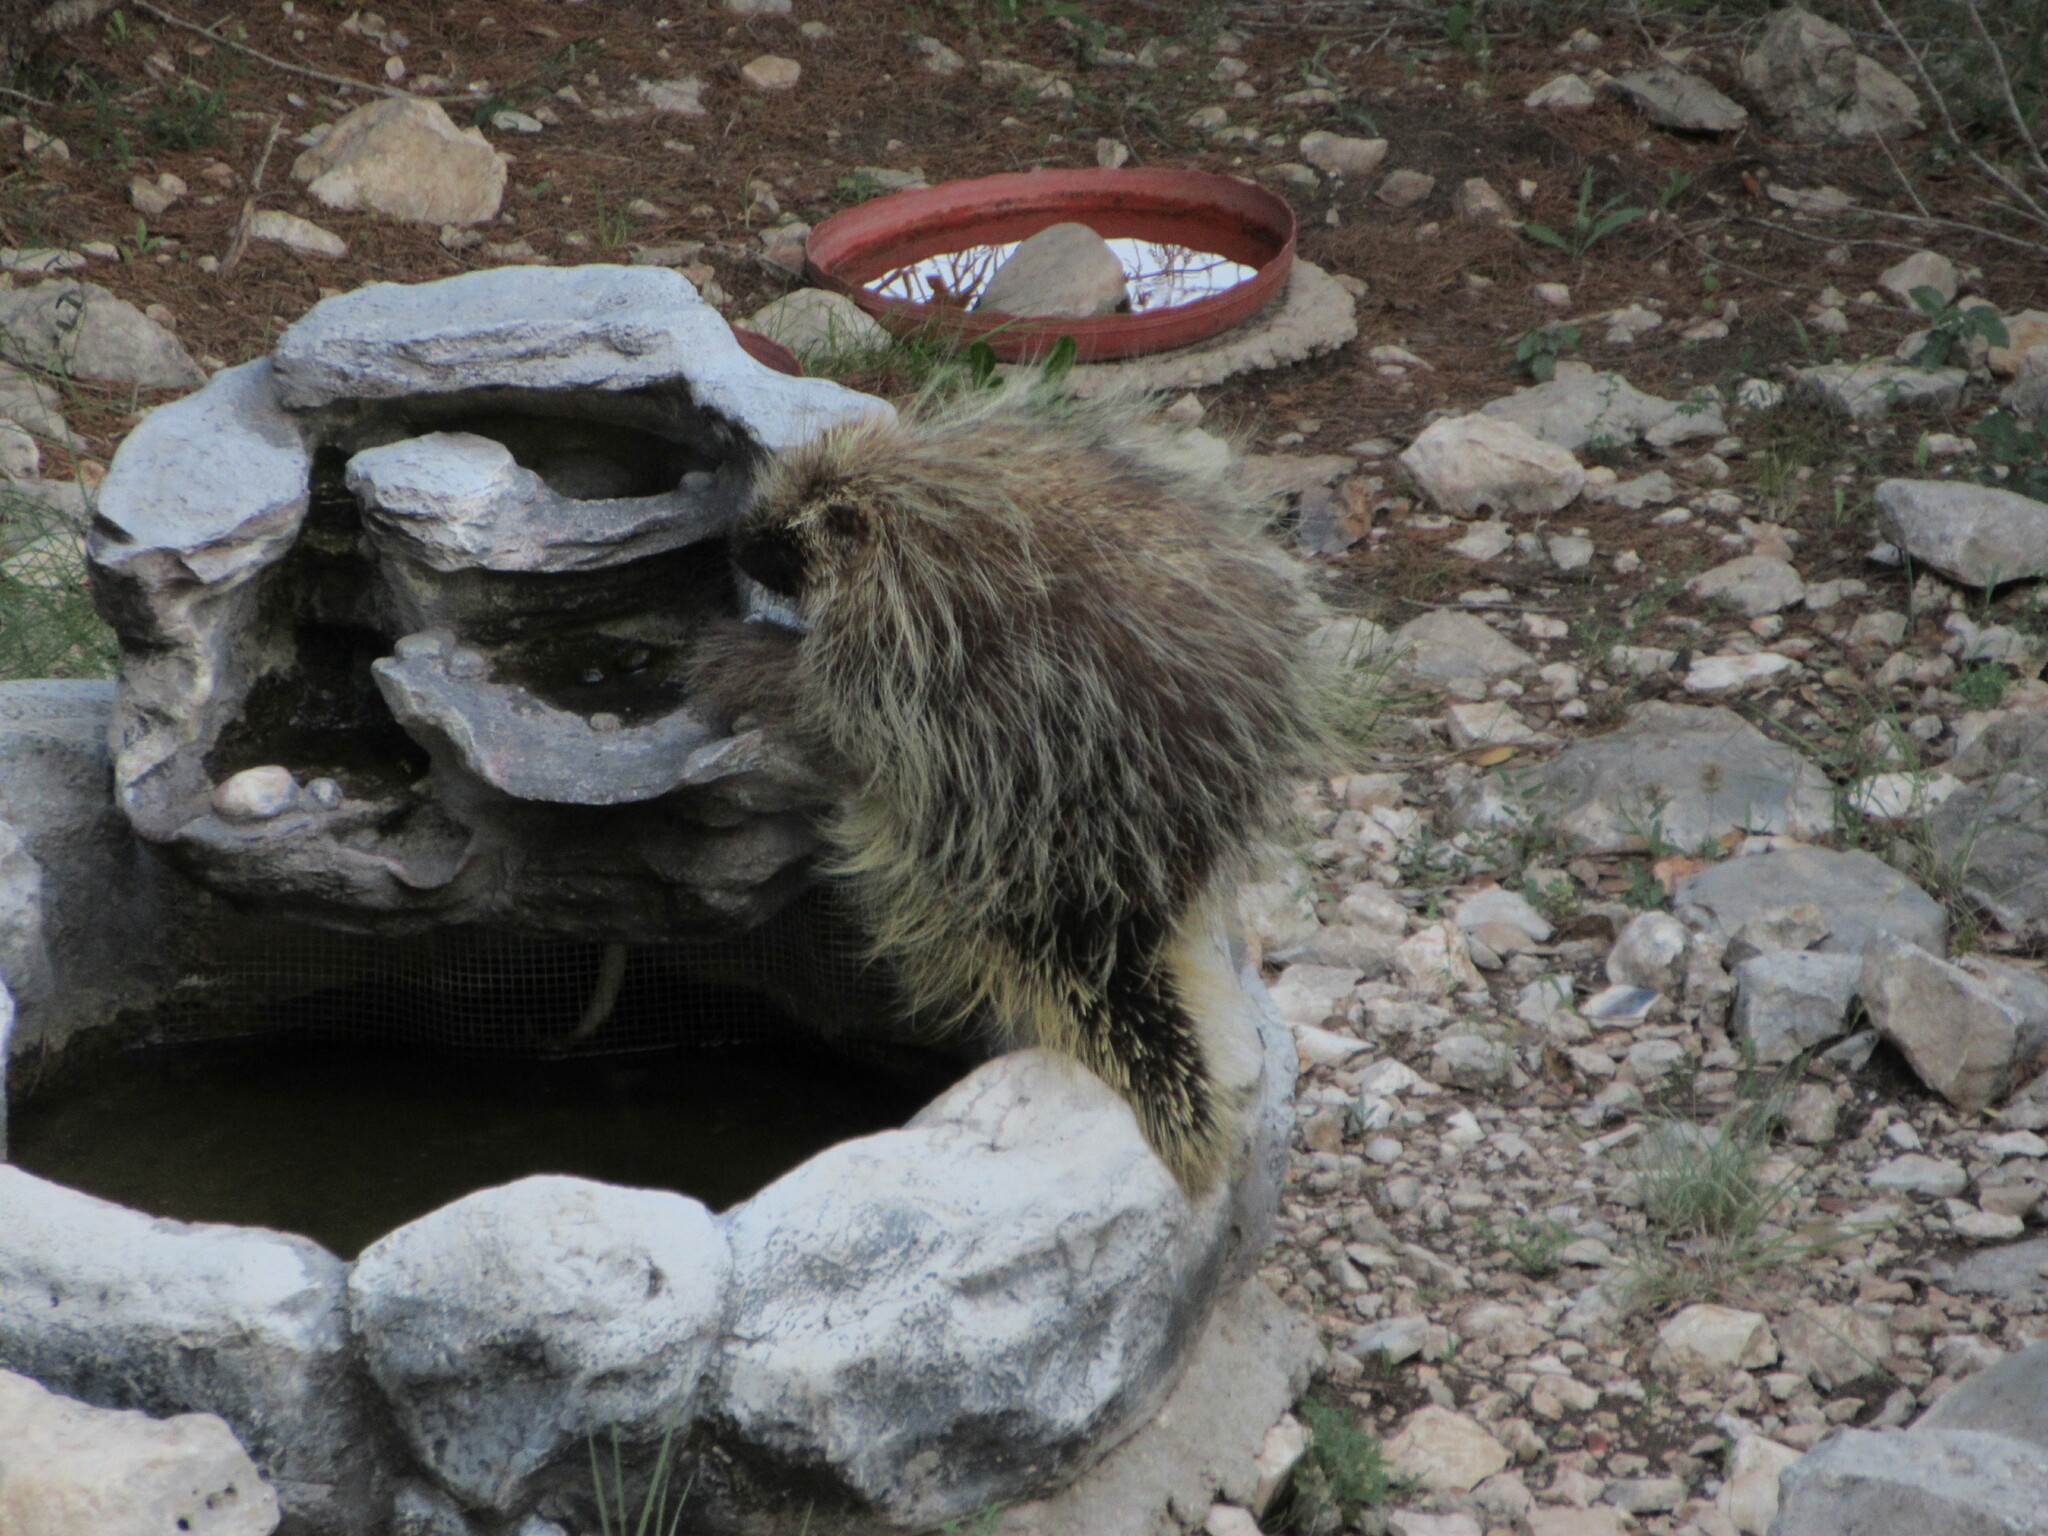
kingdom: Animalia
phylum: Chordata
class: Mammalia
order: Rodentia
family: Erethizontidae
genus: Erethizon
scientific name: Erethizon dorsatus
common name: North american porcupine
